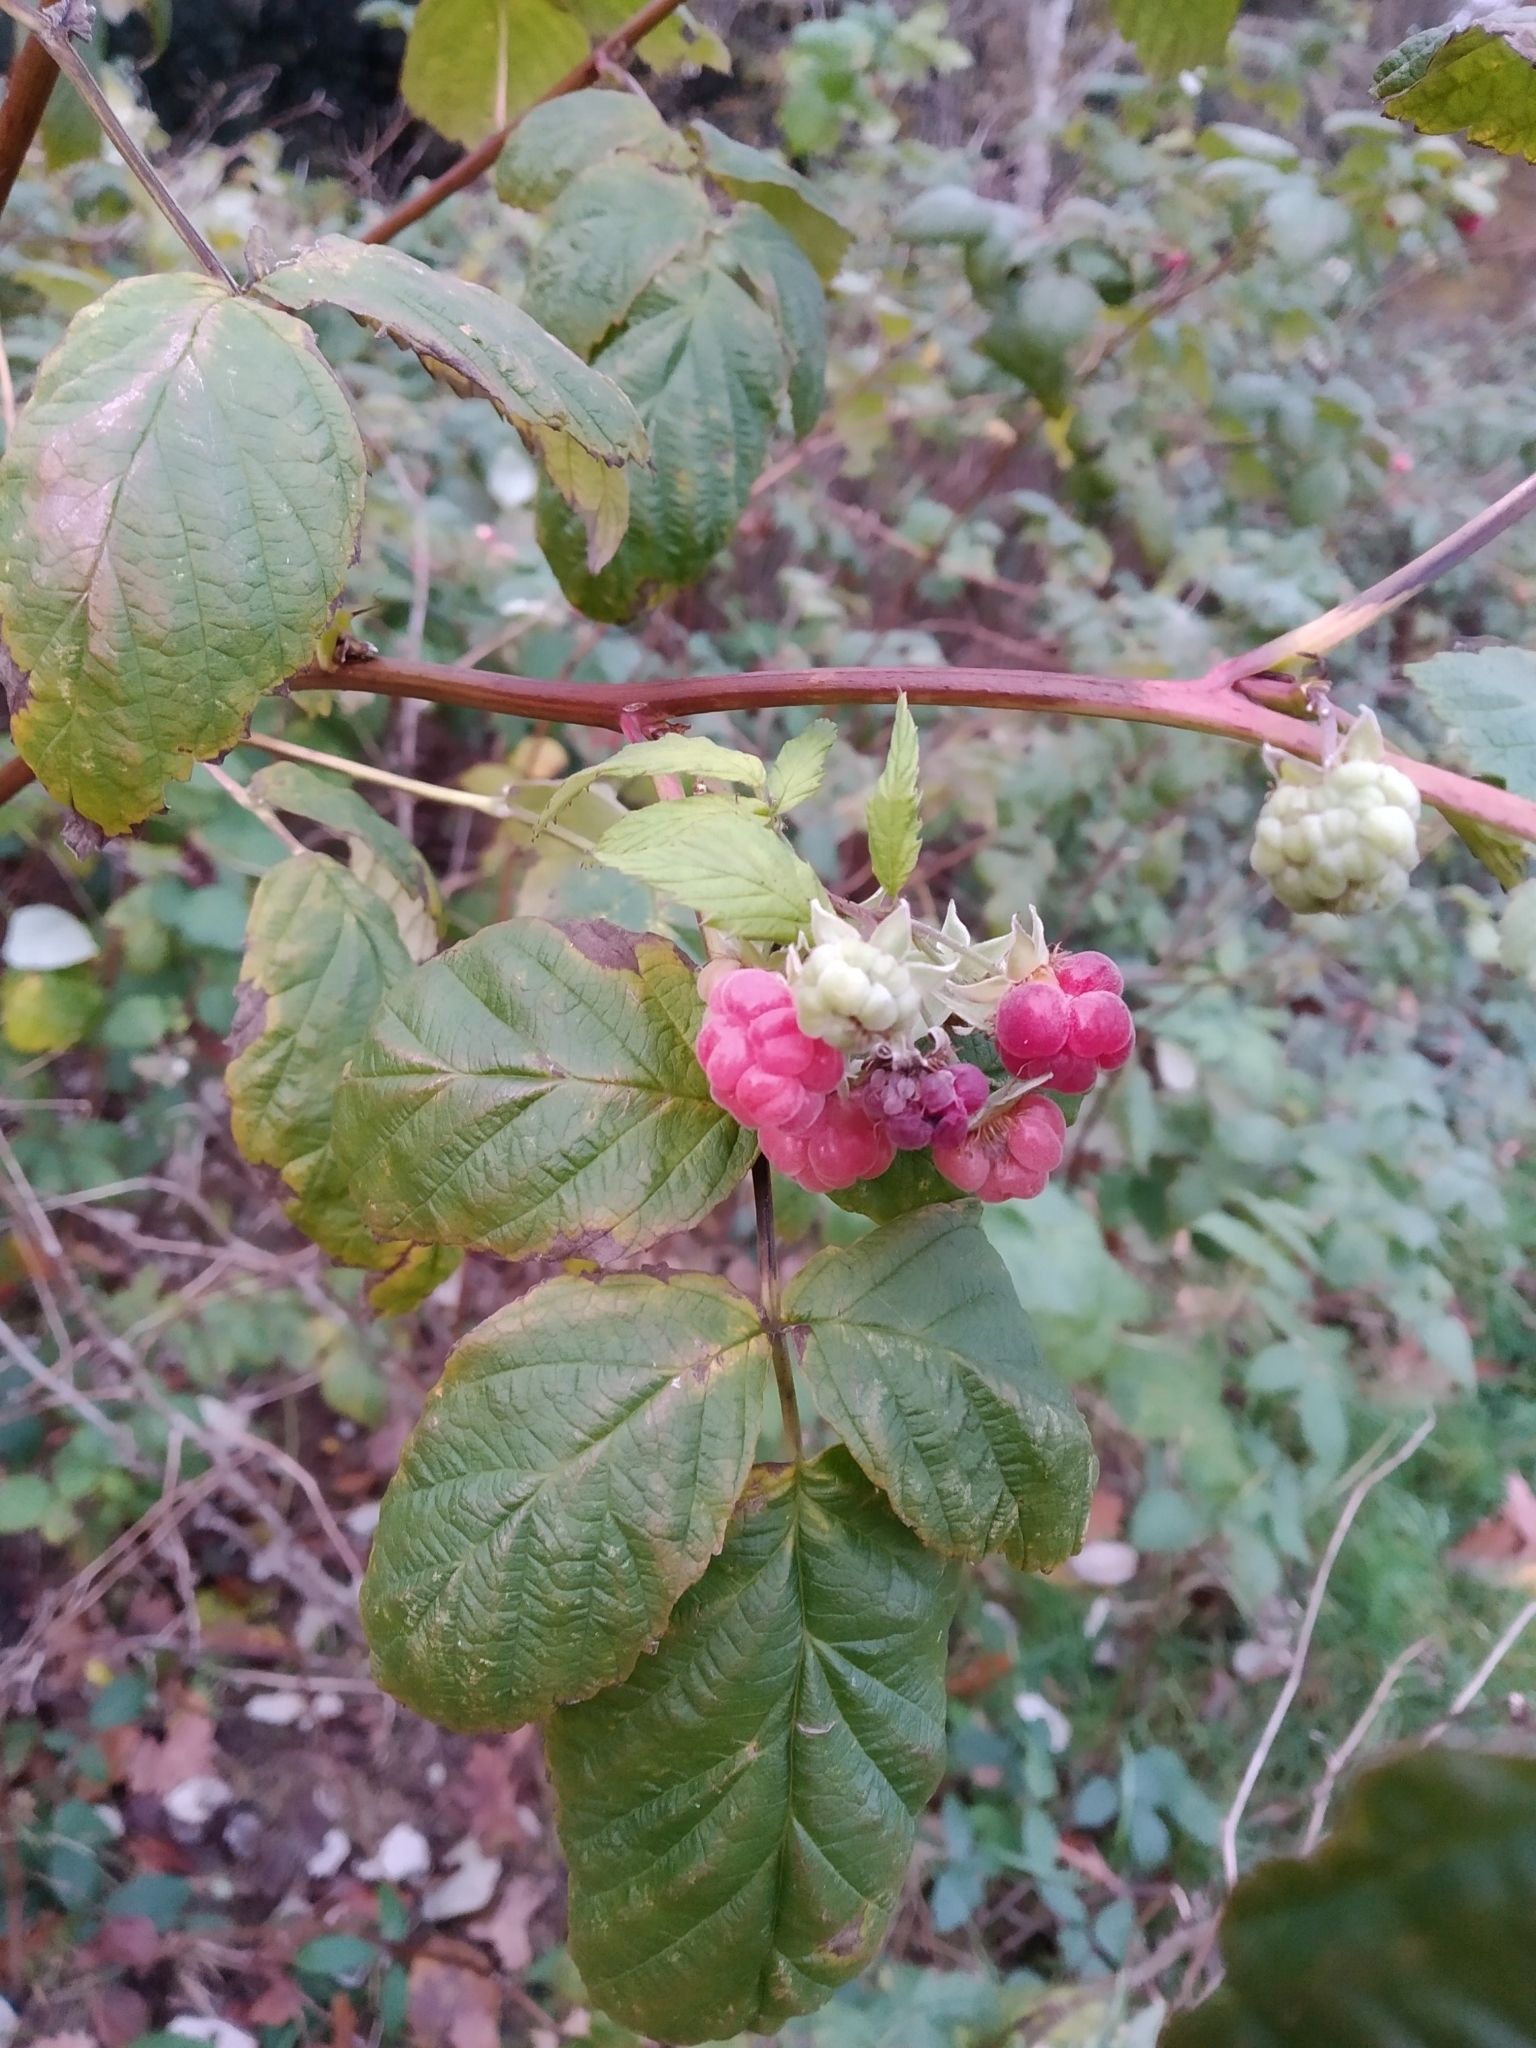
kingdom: Plantae
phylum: Tracheophyta
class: Magnoliopsida
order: Rosales
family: Rosaceae
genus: Rubus
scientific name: Rubus idaeus
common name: Raspberry
